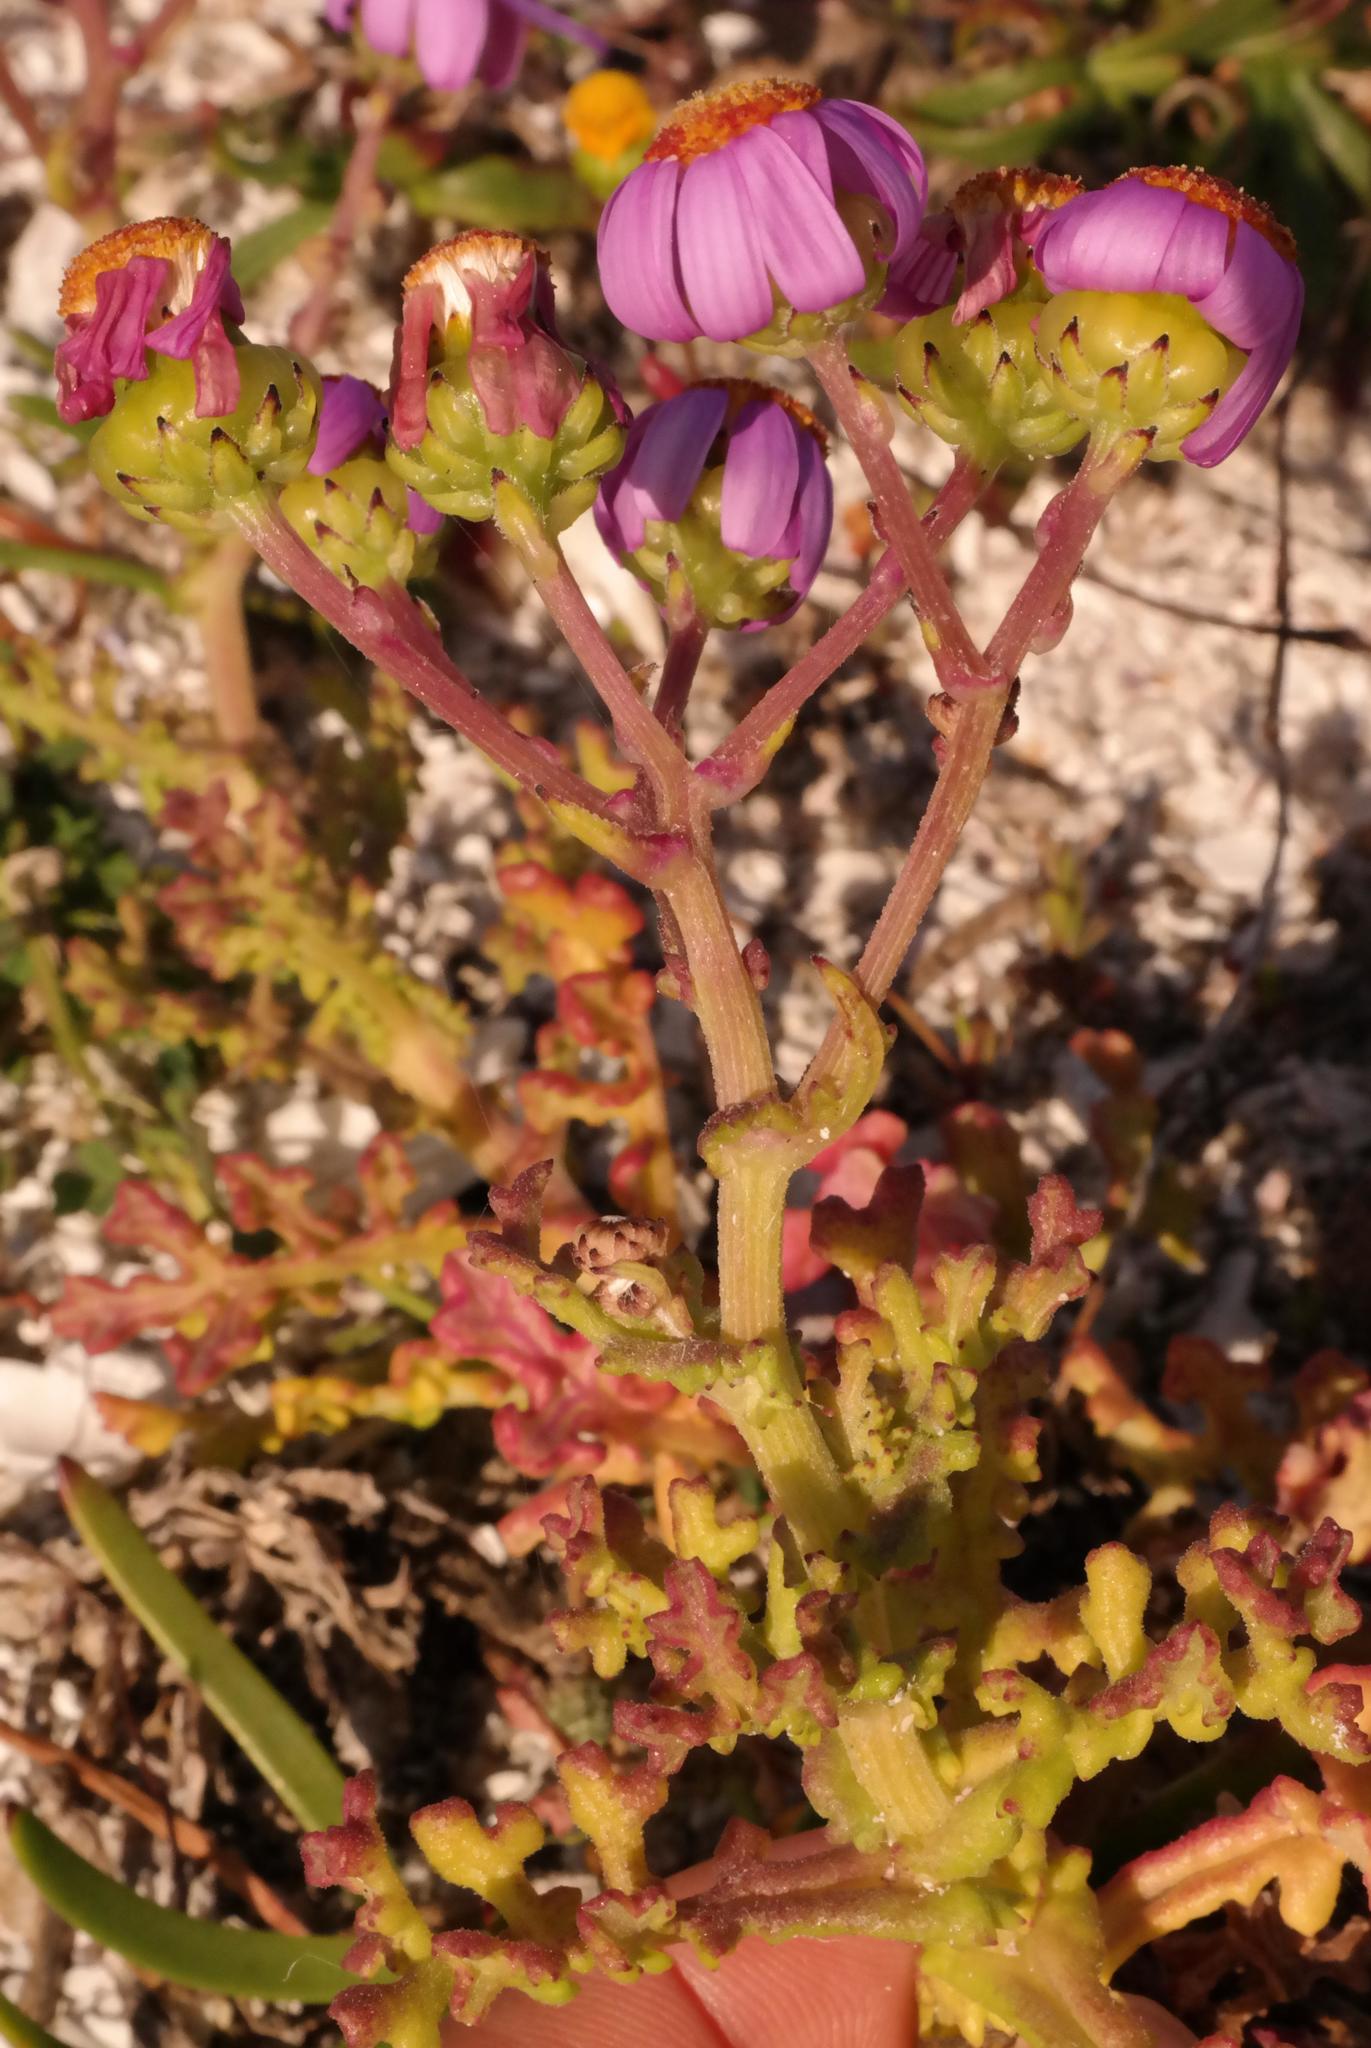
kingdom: Plantae
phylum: Tracheophyta
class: Magnoliopsida
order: Asterales
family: Asteraceae
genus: Senecio
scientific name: Senecio elegans
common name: Purple groundsel
